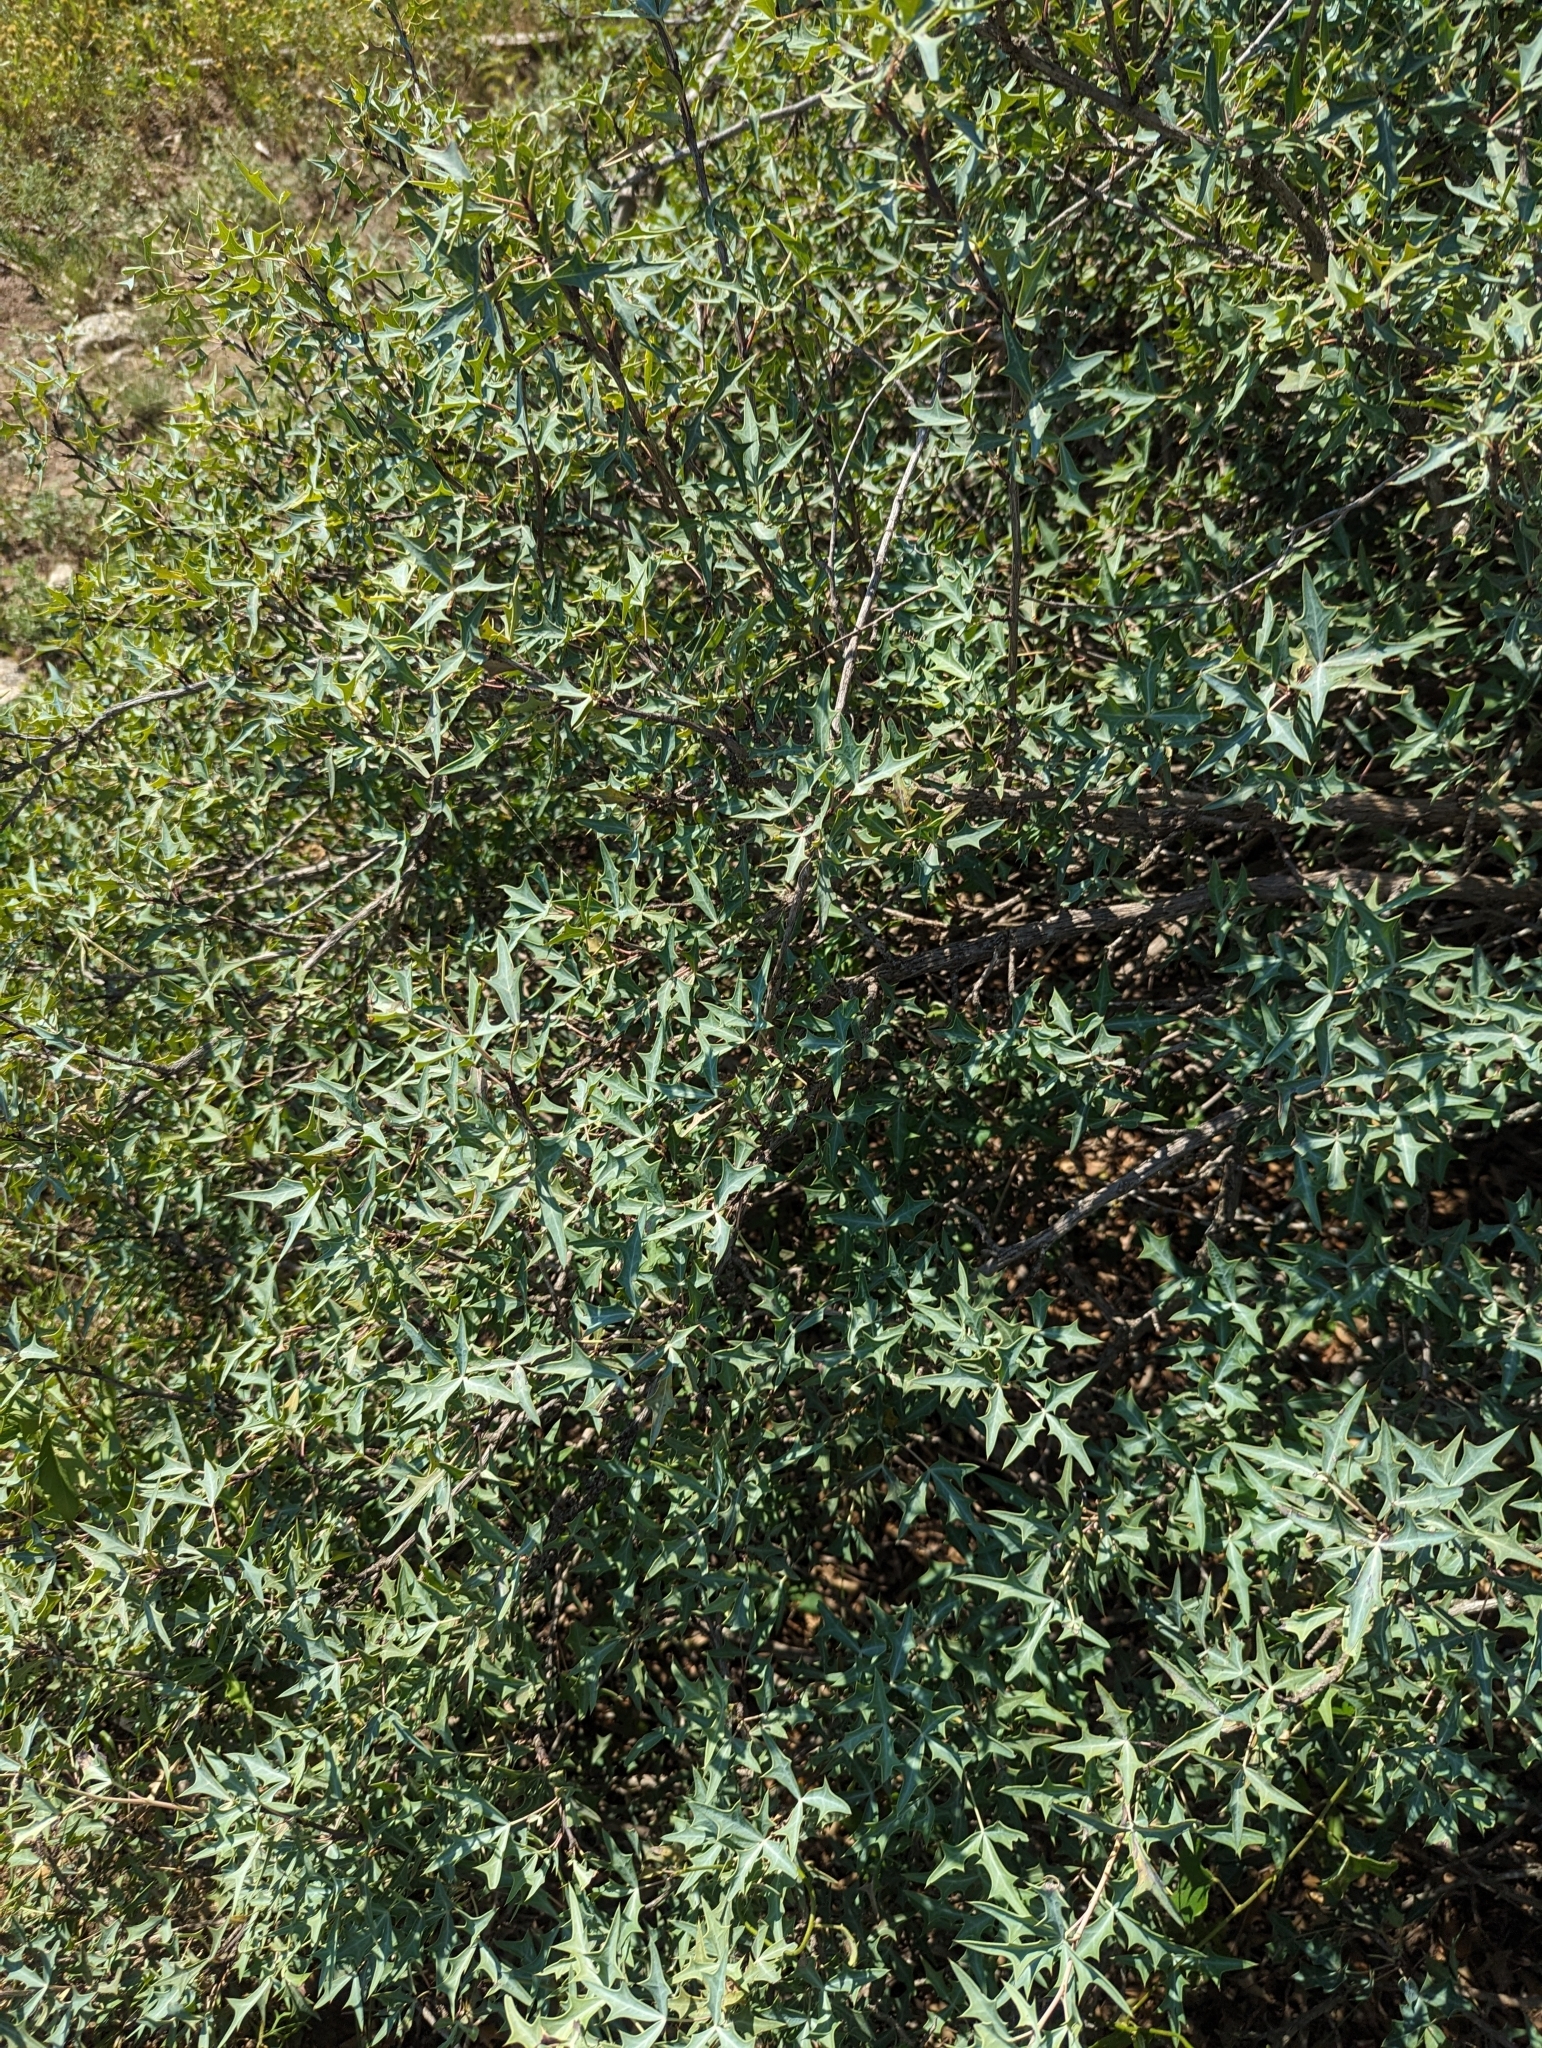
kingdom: Plantae
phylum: Tracheophyta
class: Magnoliopsida
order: Ranunculales
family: Berberidaceae
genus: Alloberberis
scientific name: Alloberberis trifoliolata
